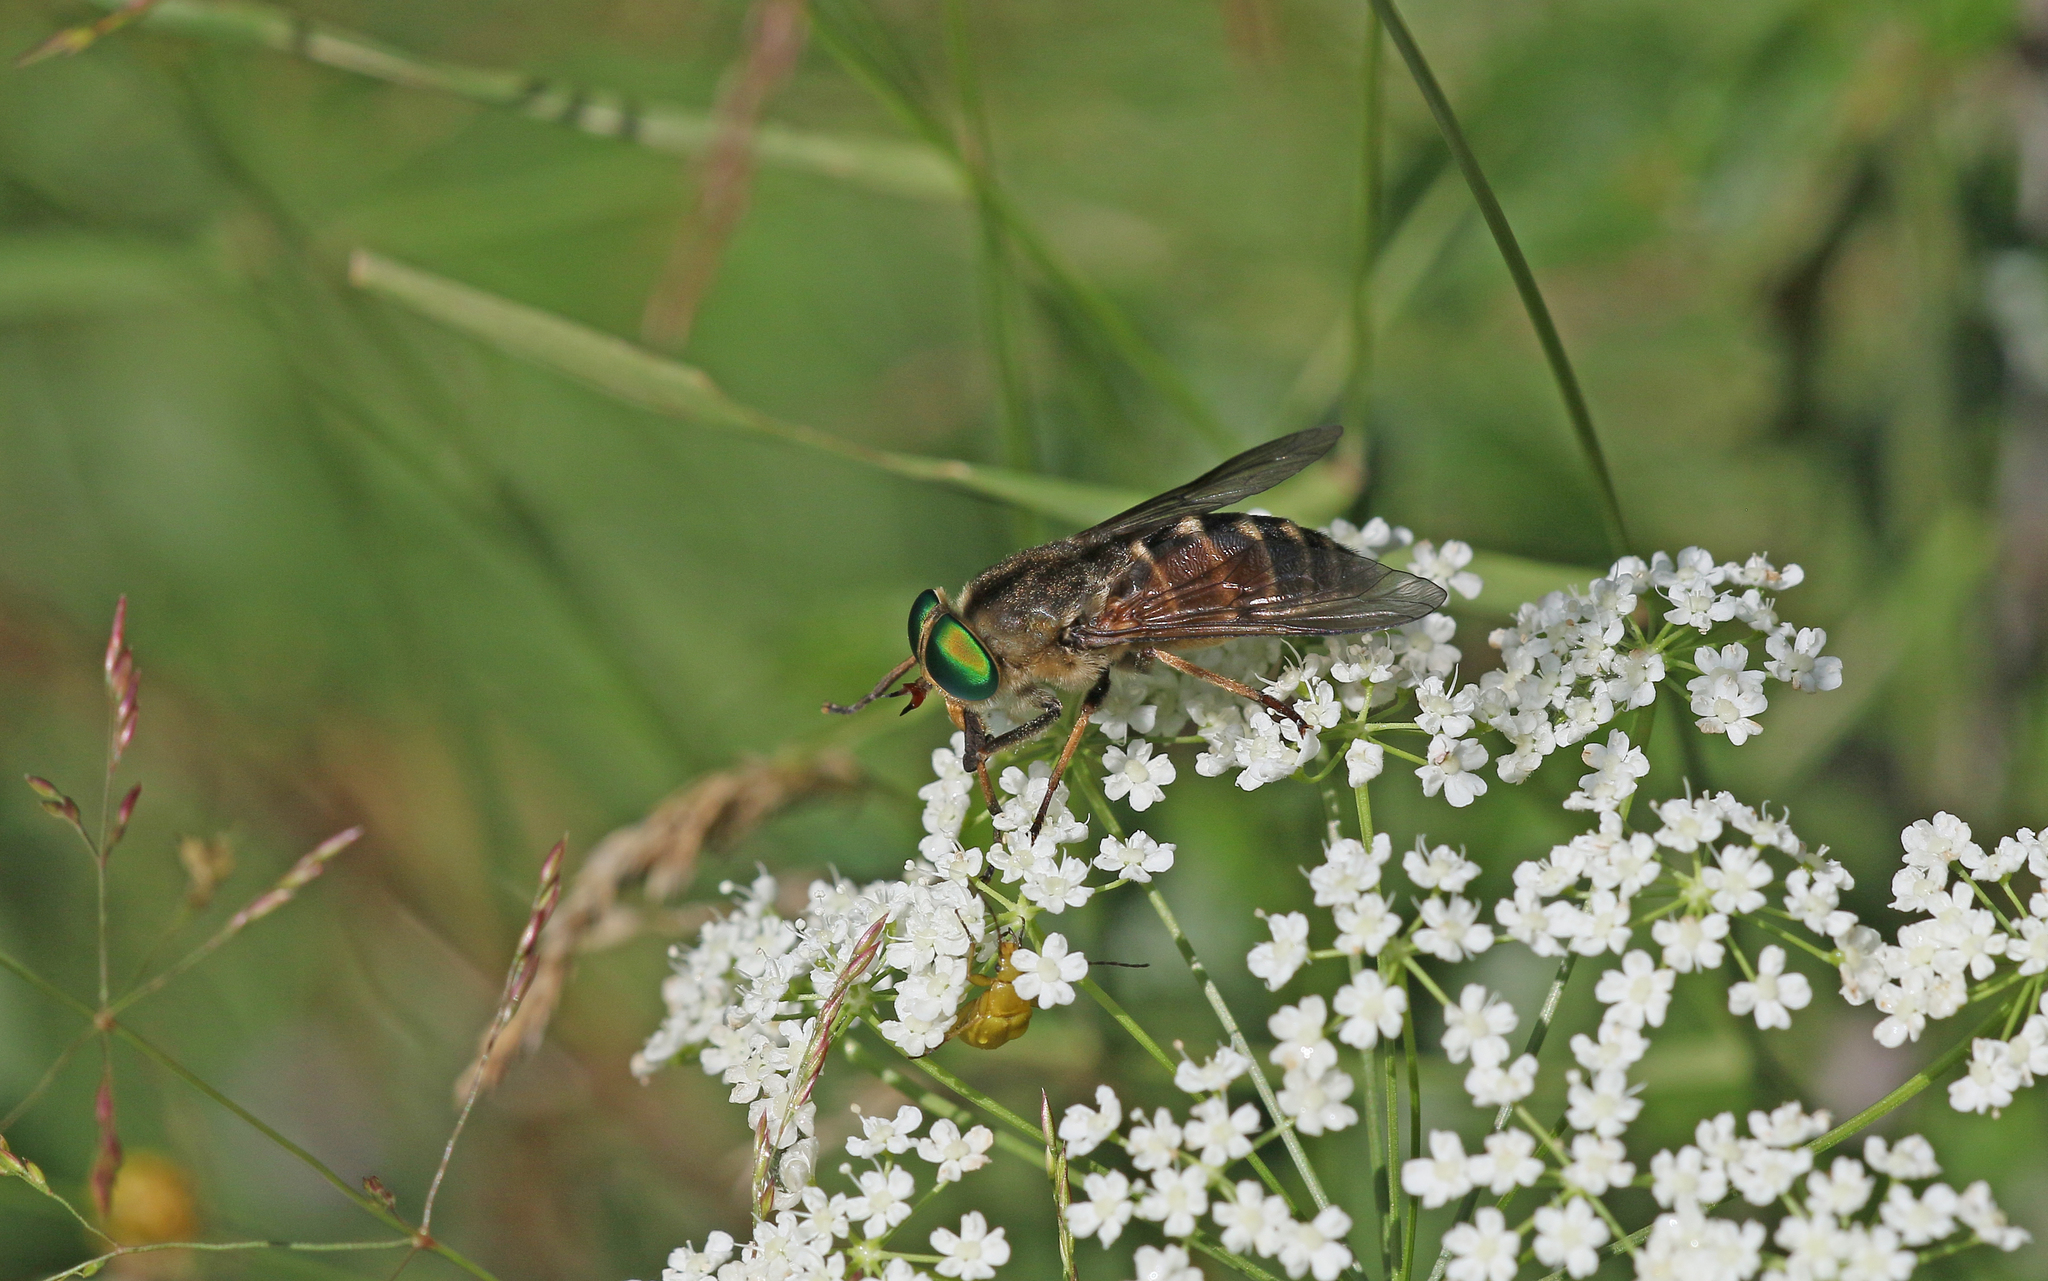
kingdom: Animalia
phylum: Arthropoda
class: Insecta
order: Diptera
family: Tabanidae
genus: Philipomyia
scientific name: Philipomyia aprica
